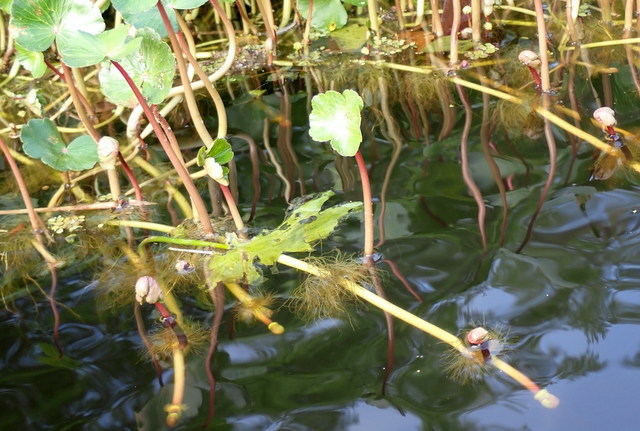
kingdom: Plantae
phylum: Tracheophyta
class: Magnoliopsida
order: Apiales
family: Araliaceae
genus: Hydrocotyle
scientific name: Hydrocotyle ranunculoides
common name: Floating pennywort
